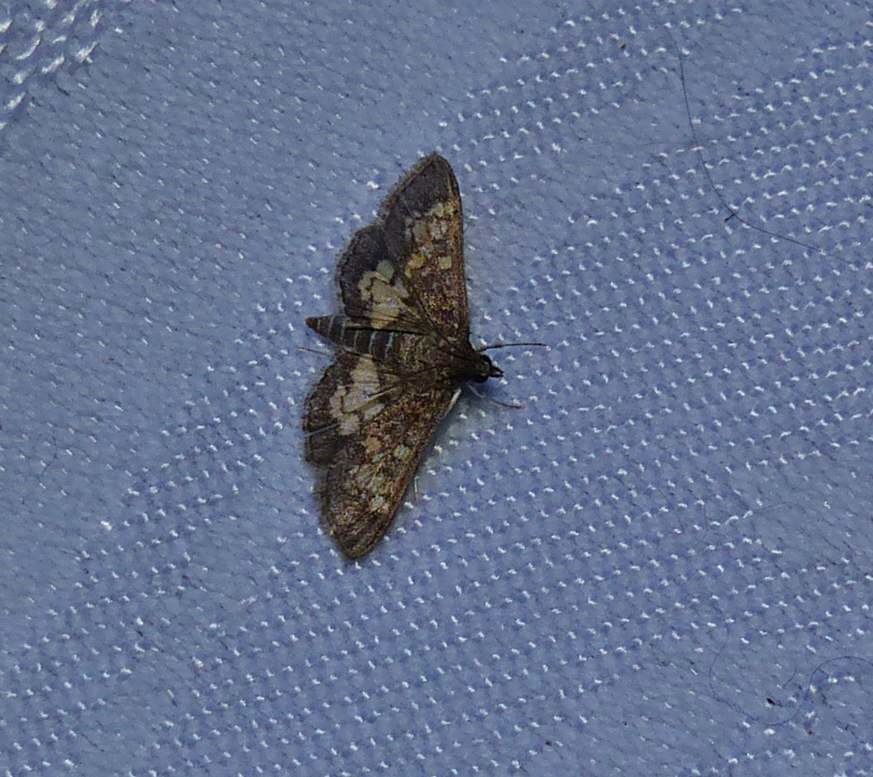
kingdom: Animalia
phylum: Arthropoda
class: Insecta
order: Lepidoptera
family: Crambidae
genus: Epipagis
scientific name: Epipagis adipaloides
